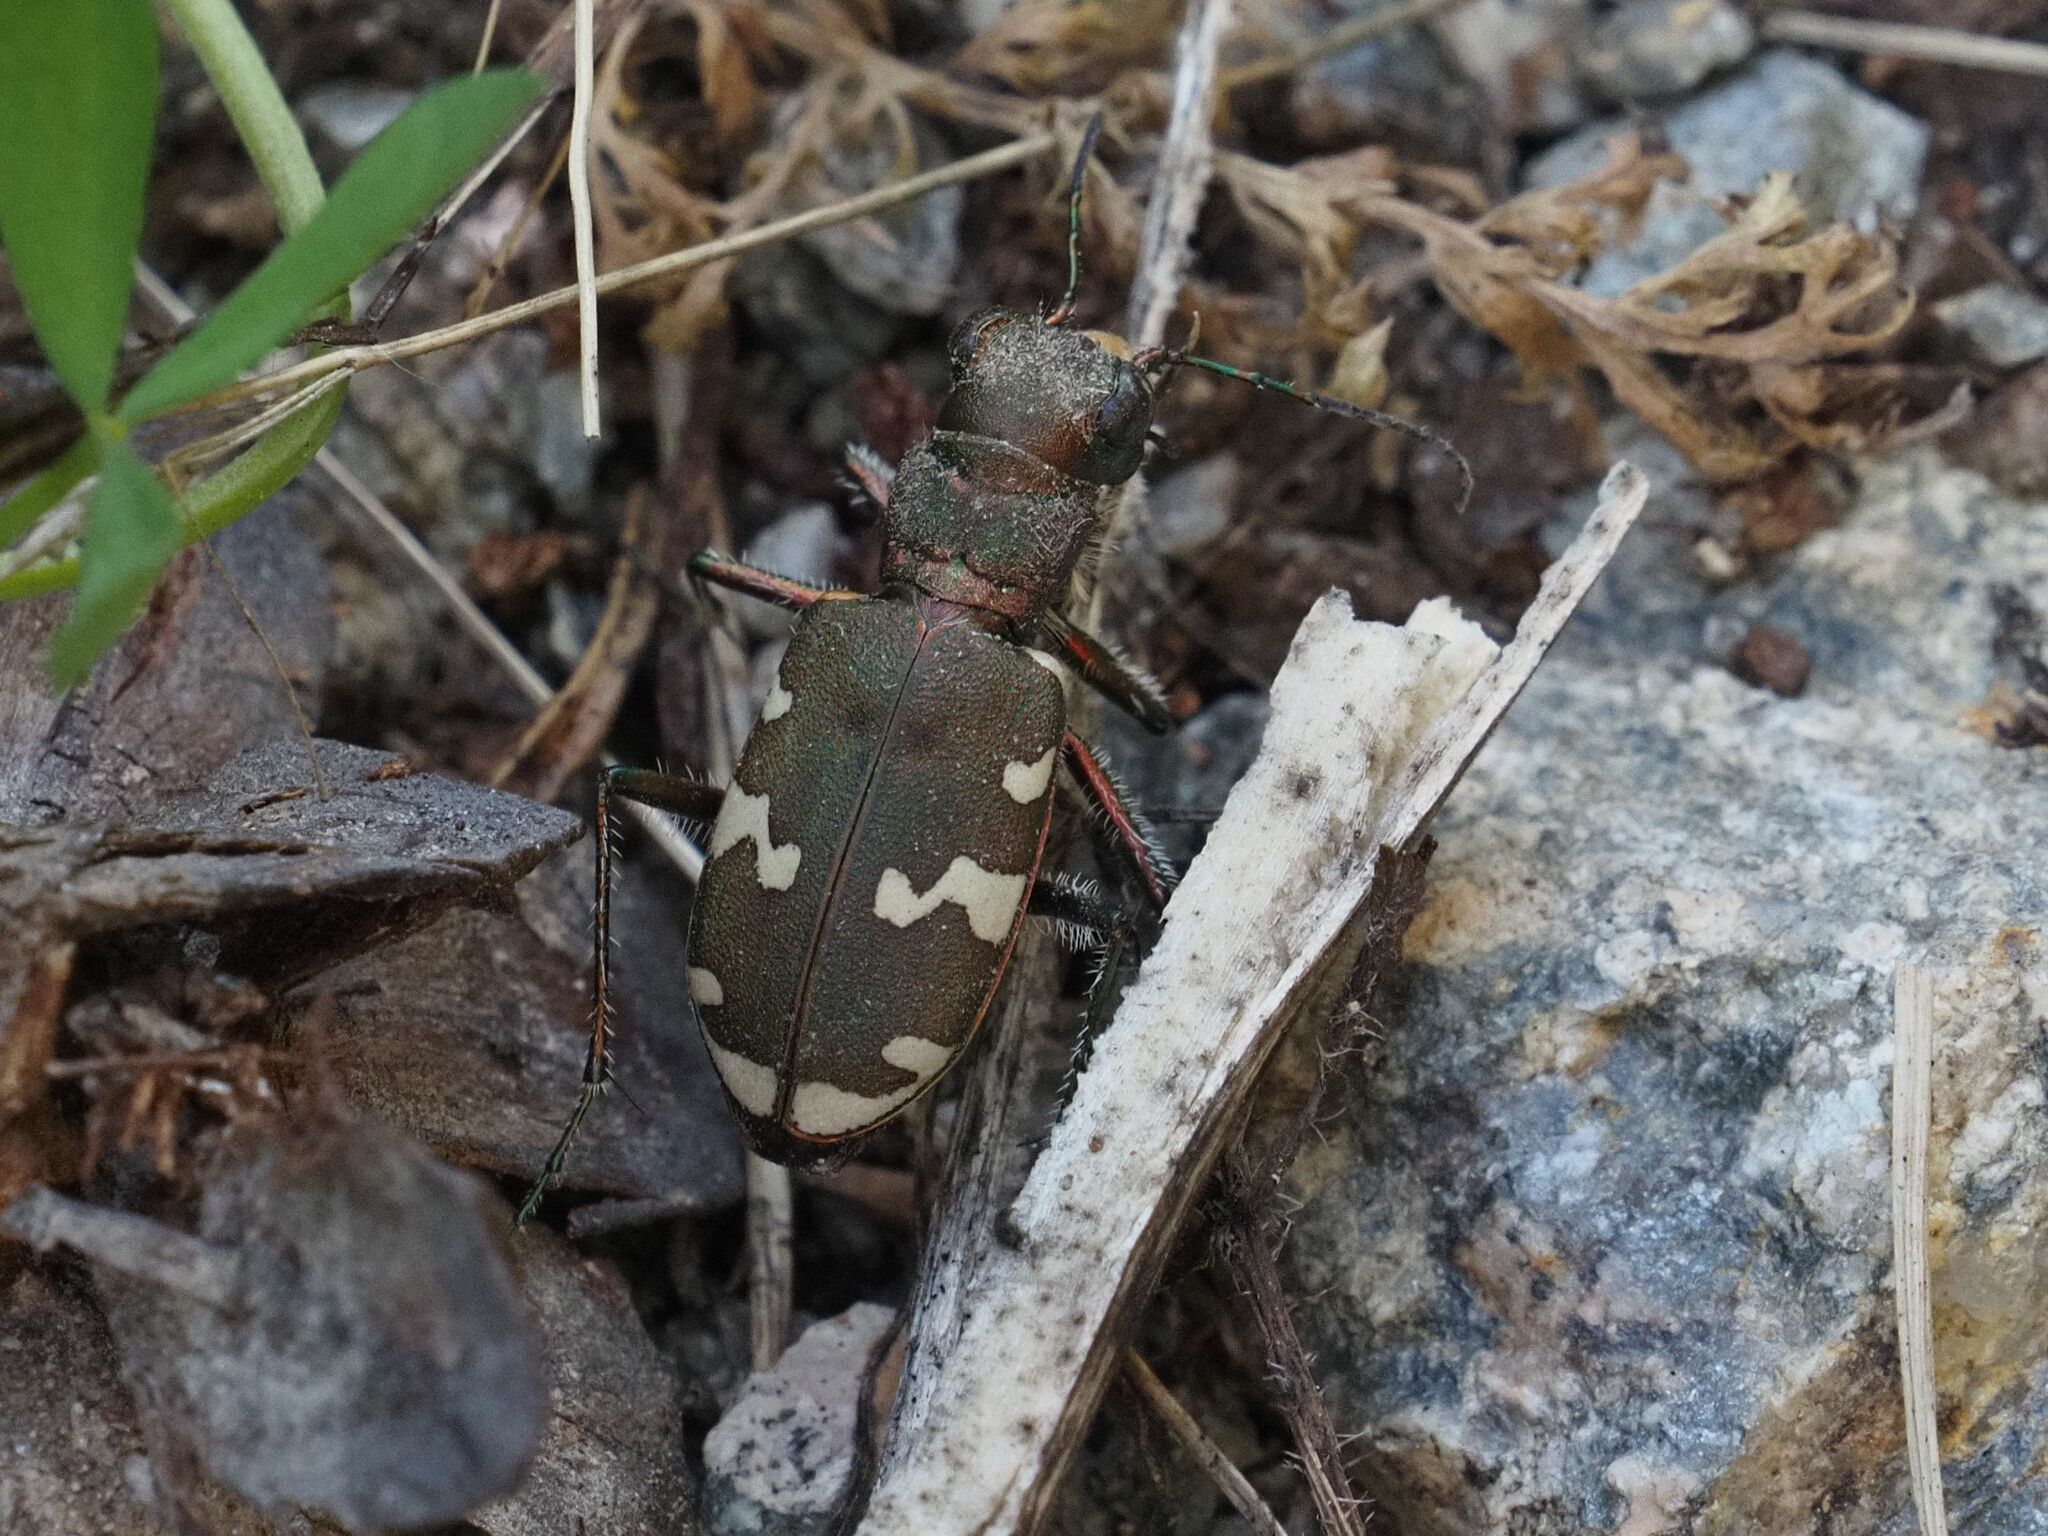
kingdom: Animalia
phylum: Arthropoda
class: Insecta
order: Coleoptera
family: Carabidae
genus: Cicindela
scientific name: Cicindela sylvicola
